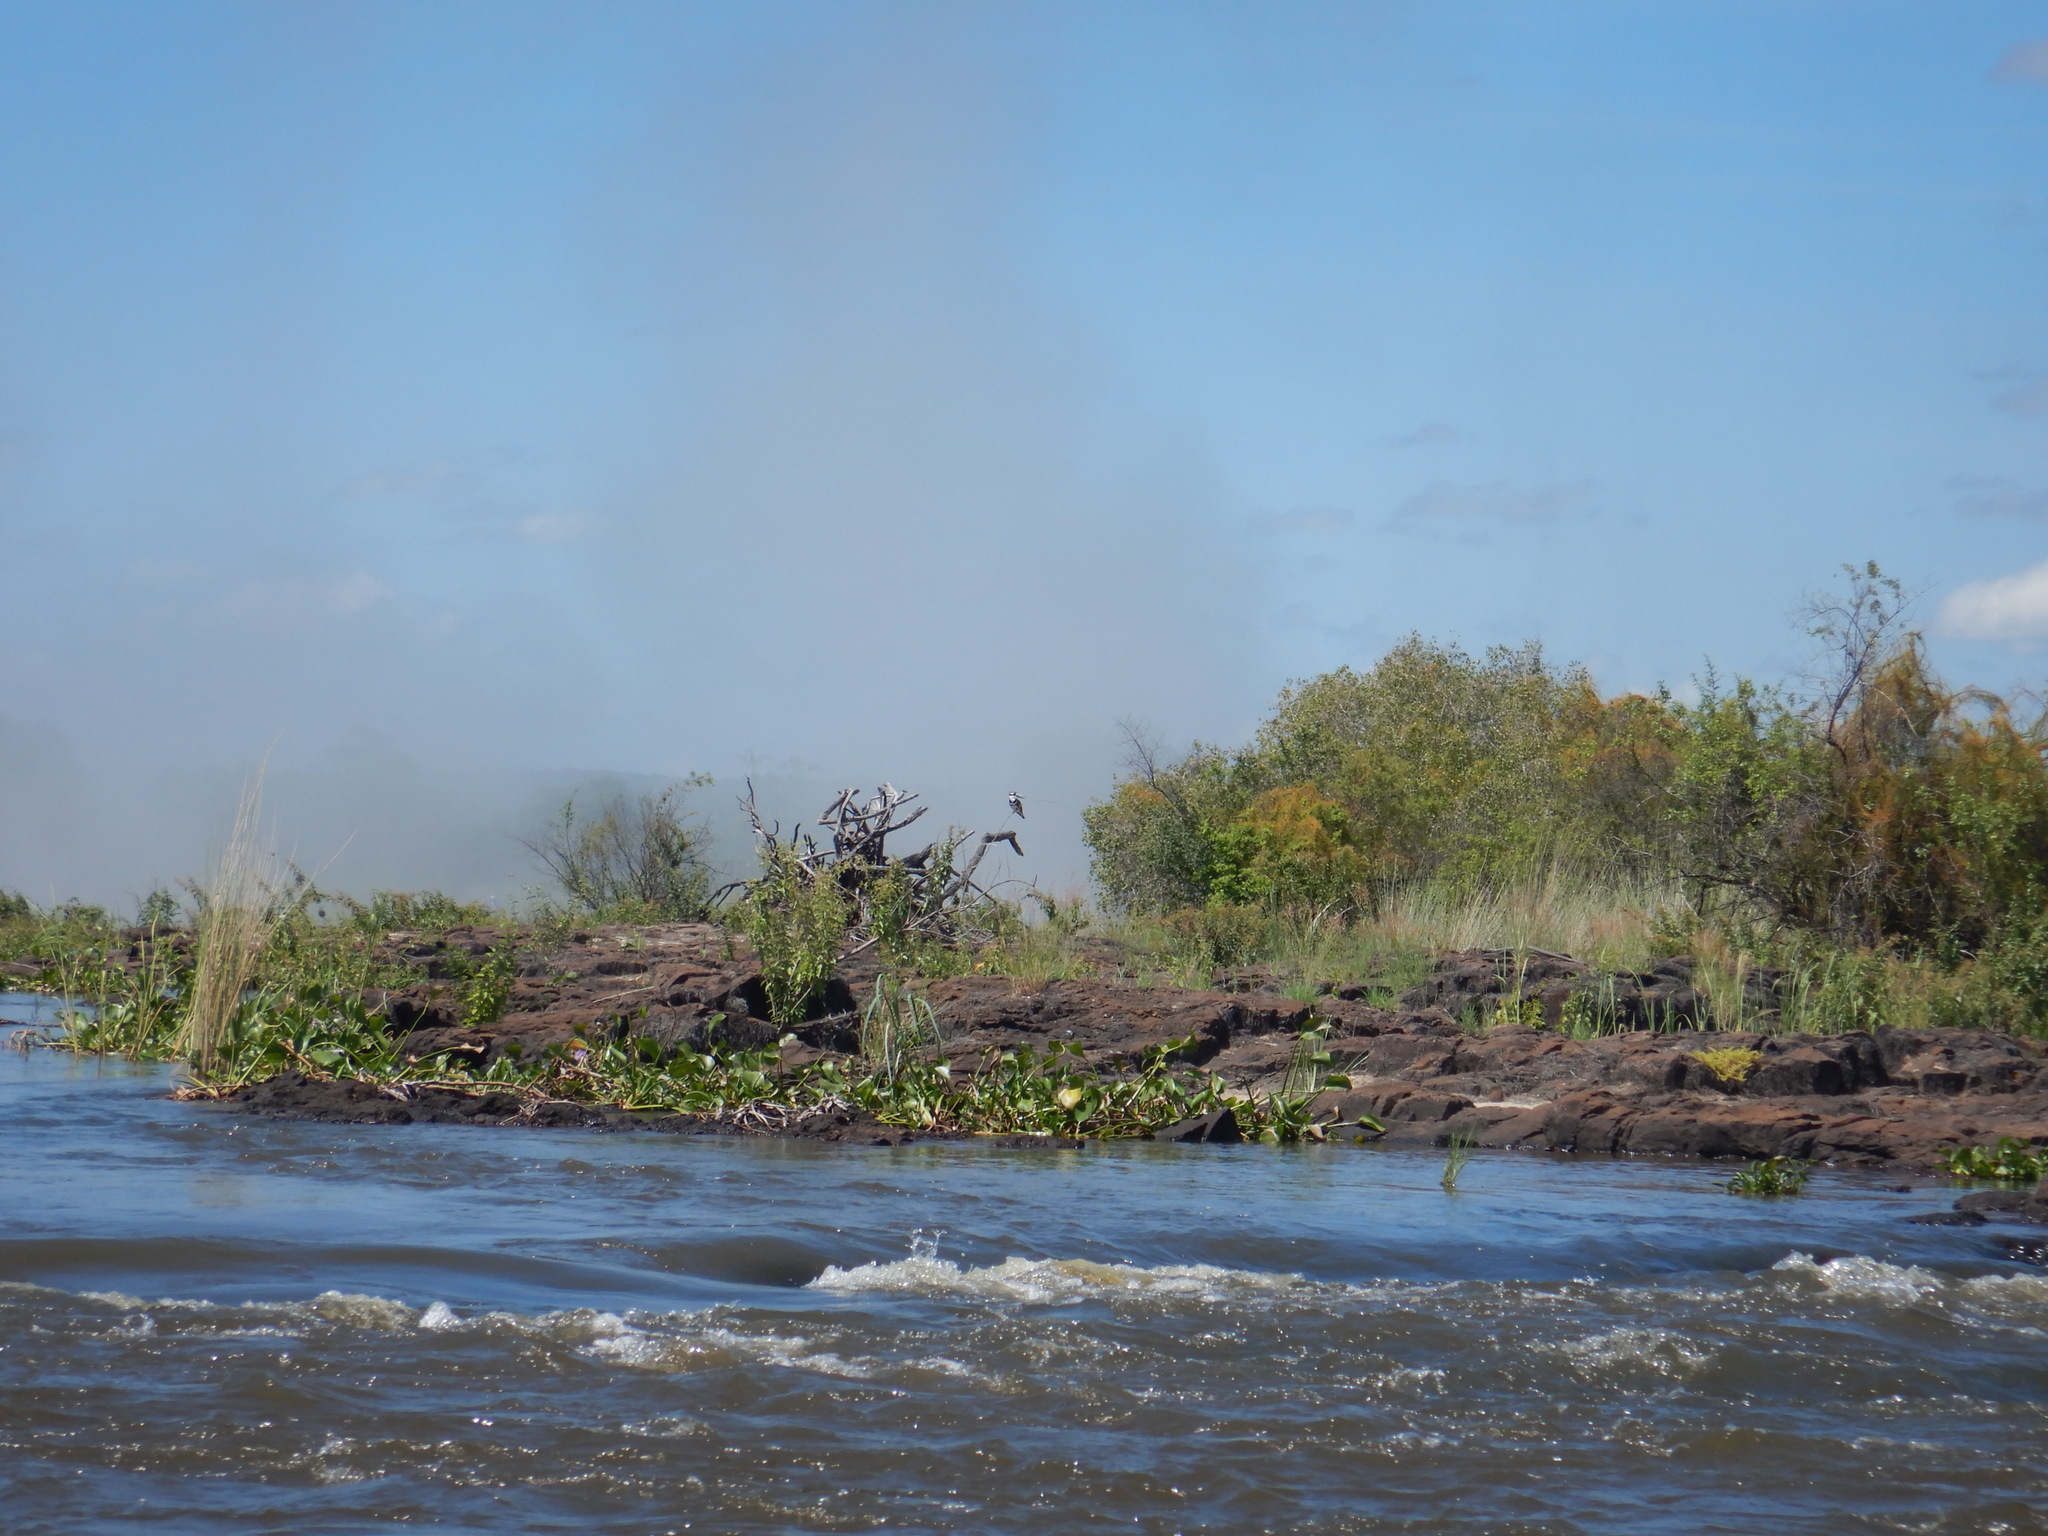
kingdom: Animalia
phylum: Chordata
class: Aves
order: Coraciiformes
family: Alcedinidae
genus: Ceryle
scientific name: Ceryle rudis
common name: Pied kingfisher
